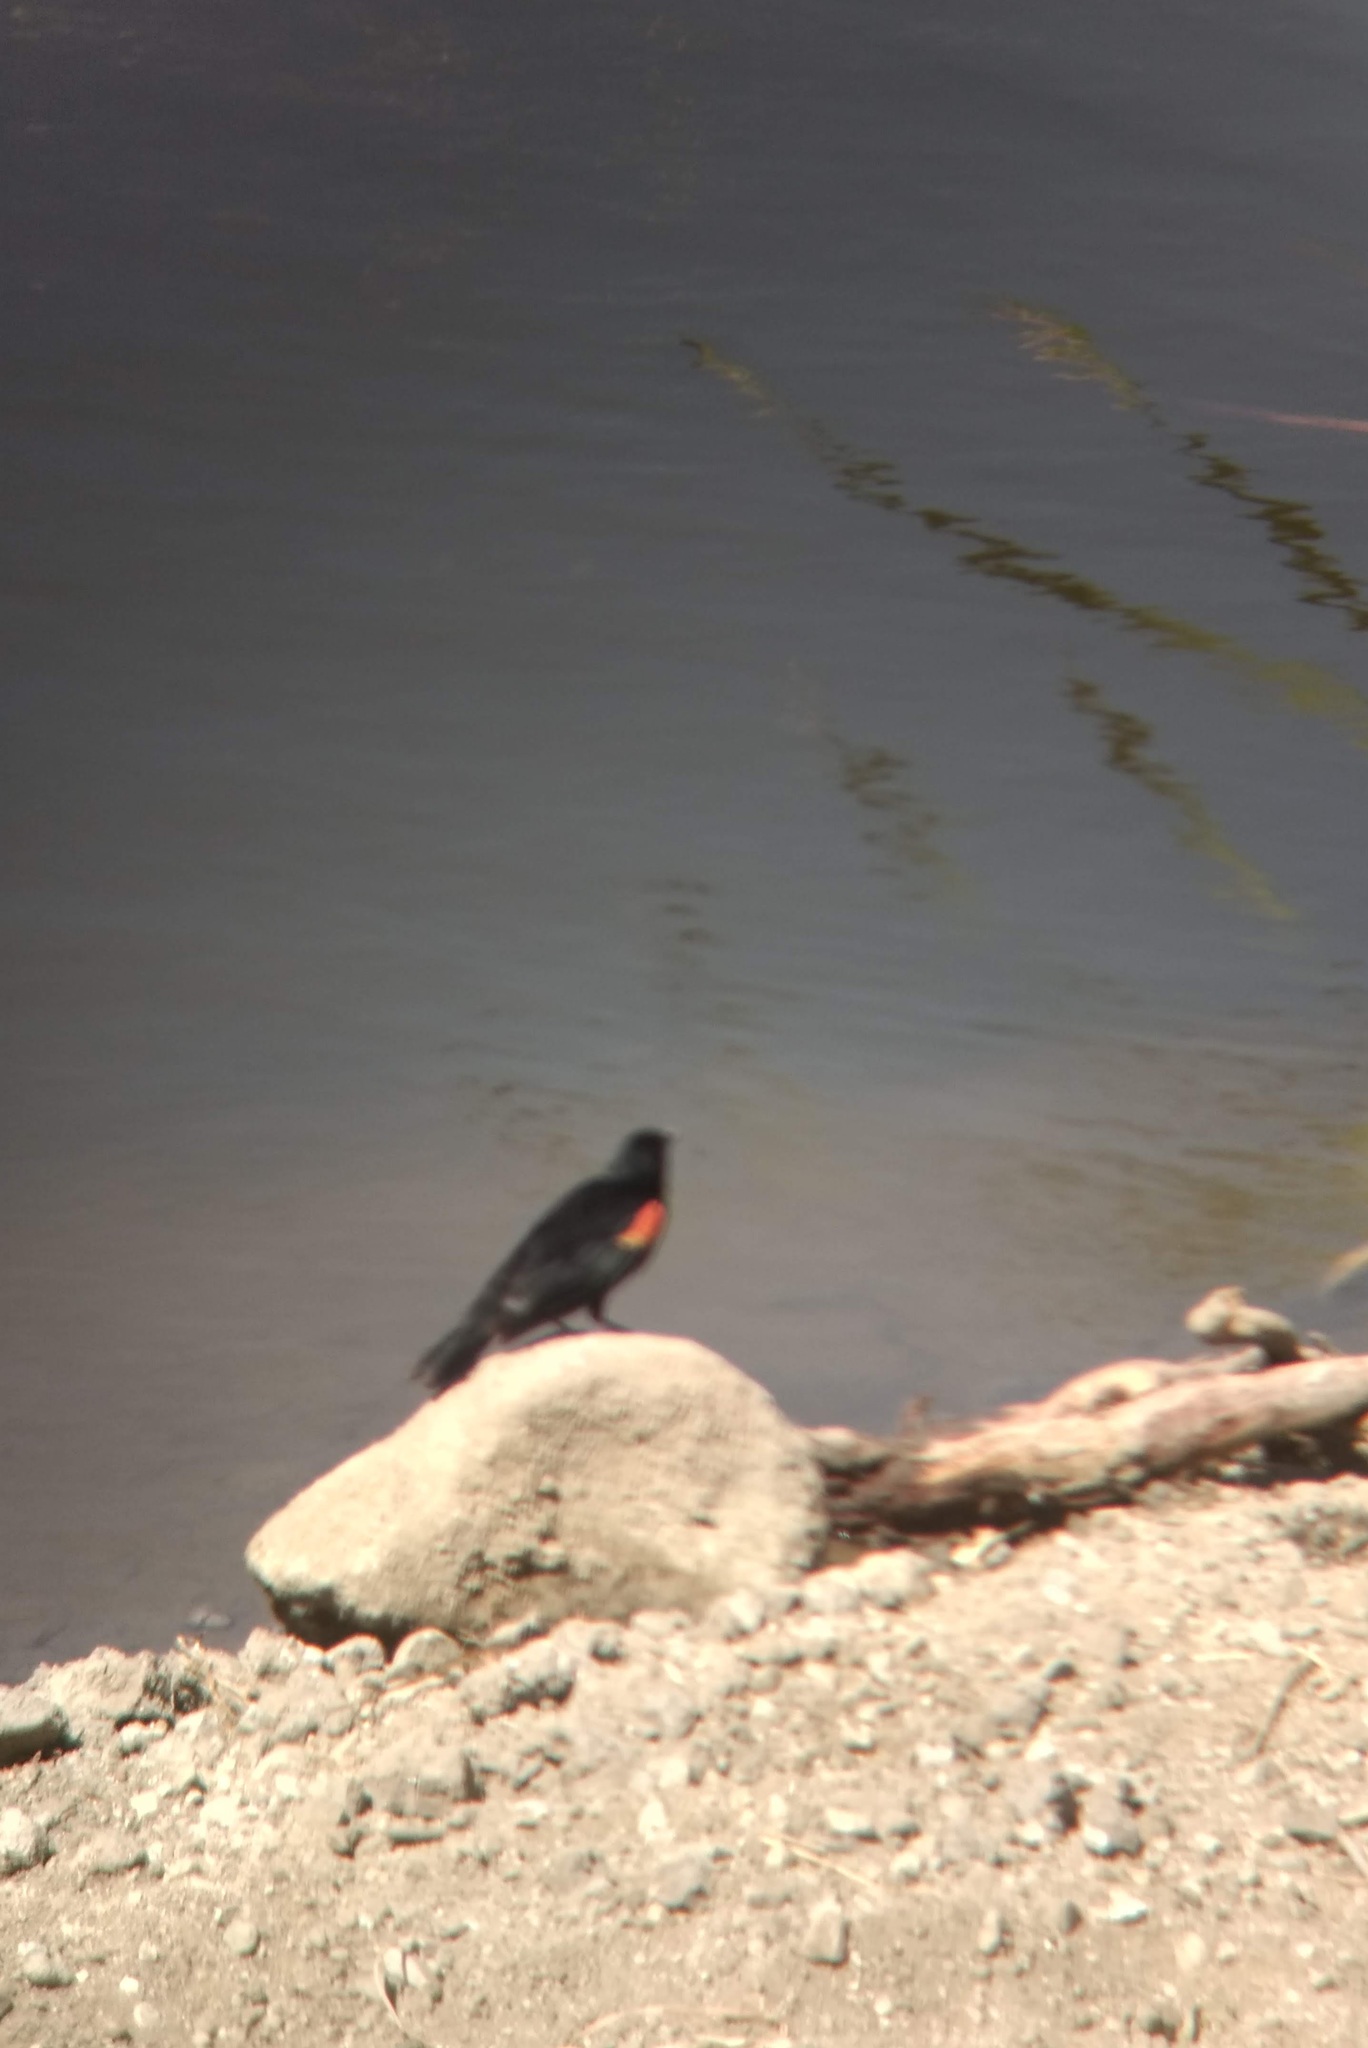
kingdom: Animalia
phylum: Chordata
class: Aves
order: Passeriformes
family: Icteridae
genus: Agelaius
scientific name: Agelaius phoeniceus
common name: Red-winged blackbird
